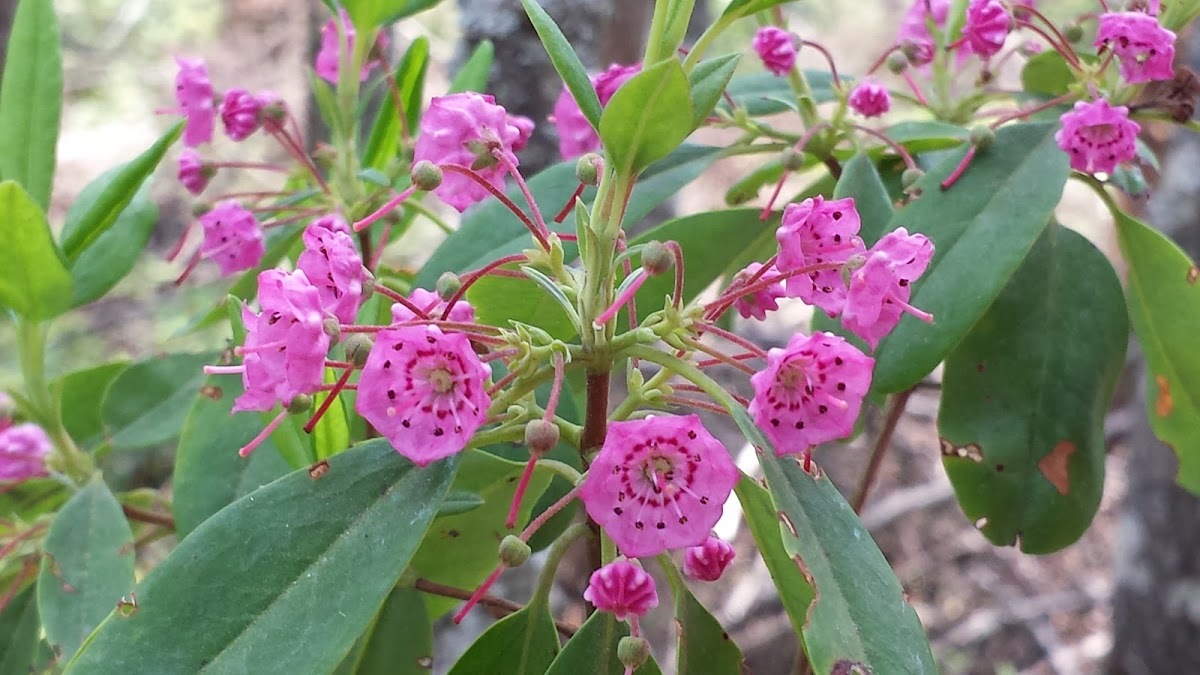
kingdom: Plantae
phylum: Tracheophyta
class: Magnoliopsida
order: Ericales
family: Ericaceae
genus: Kalmia
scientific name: Kalmia angustifolia
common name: Sheep-laurel
